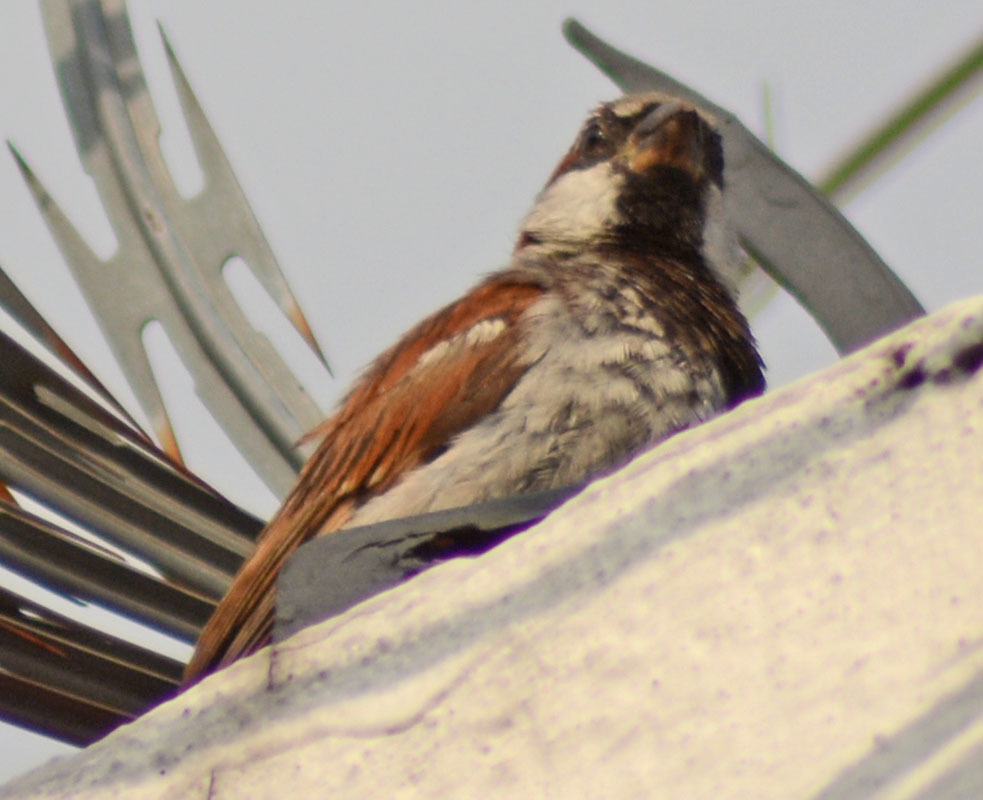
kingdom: Animalia
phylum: Chordata
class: Aves
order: Passeriformes
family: Passeridae
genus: Passer
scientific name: Passer domesticus
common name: House sparrow
